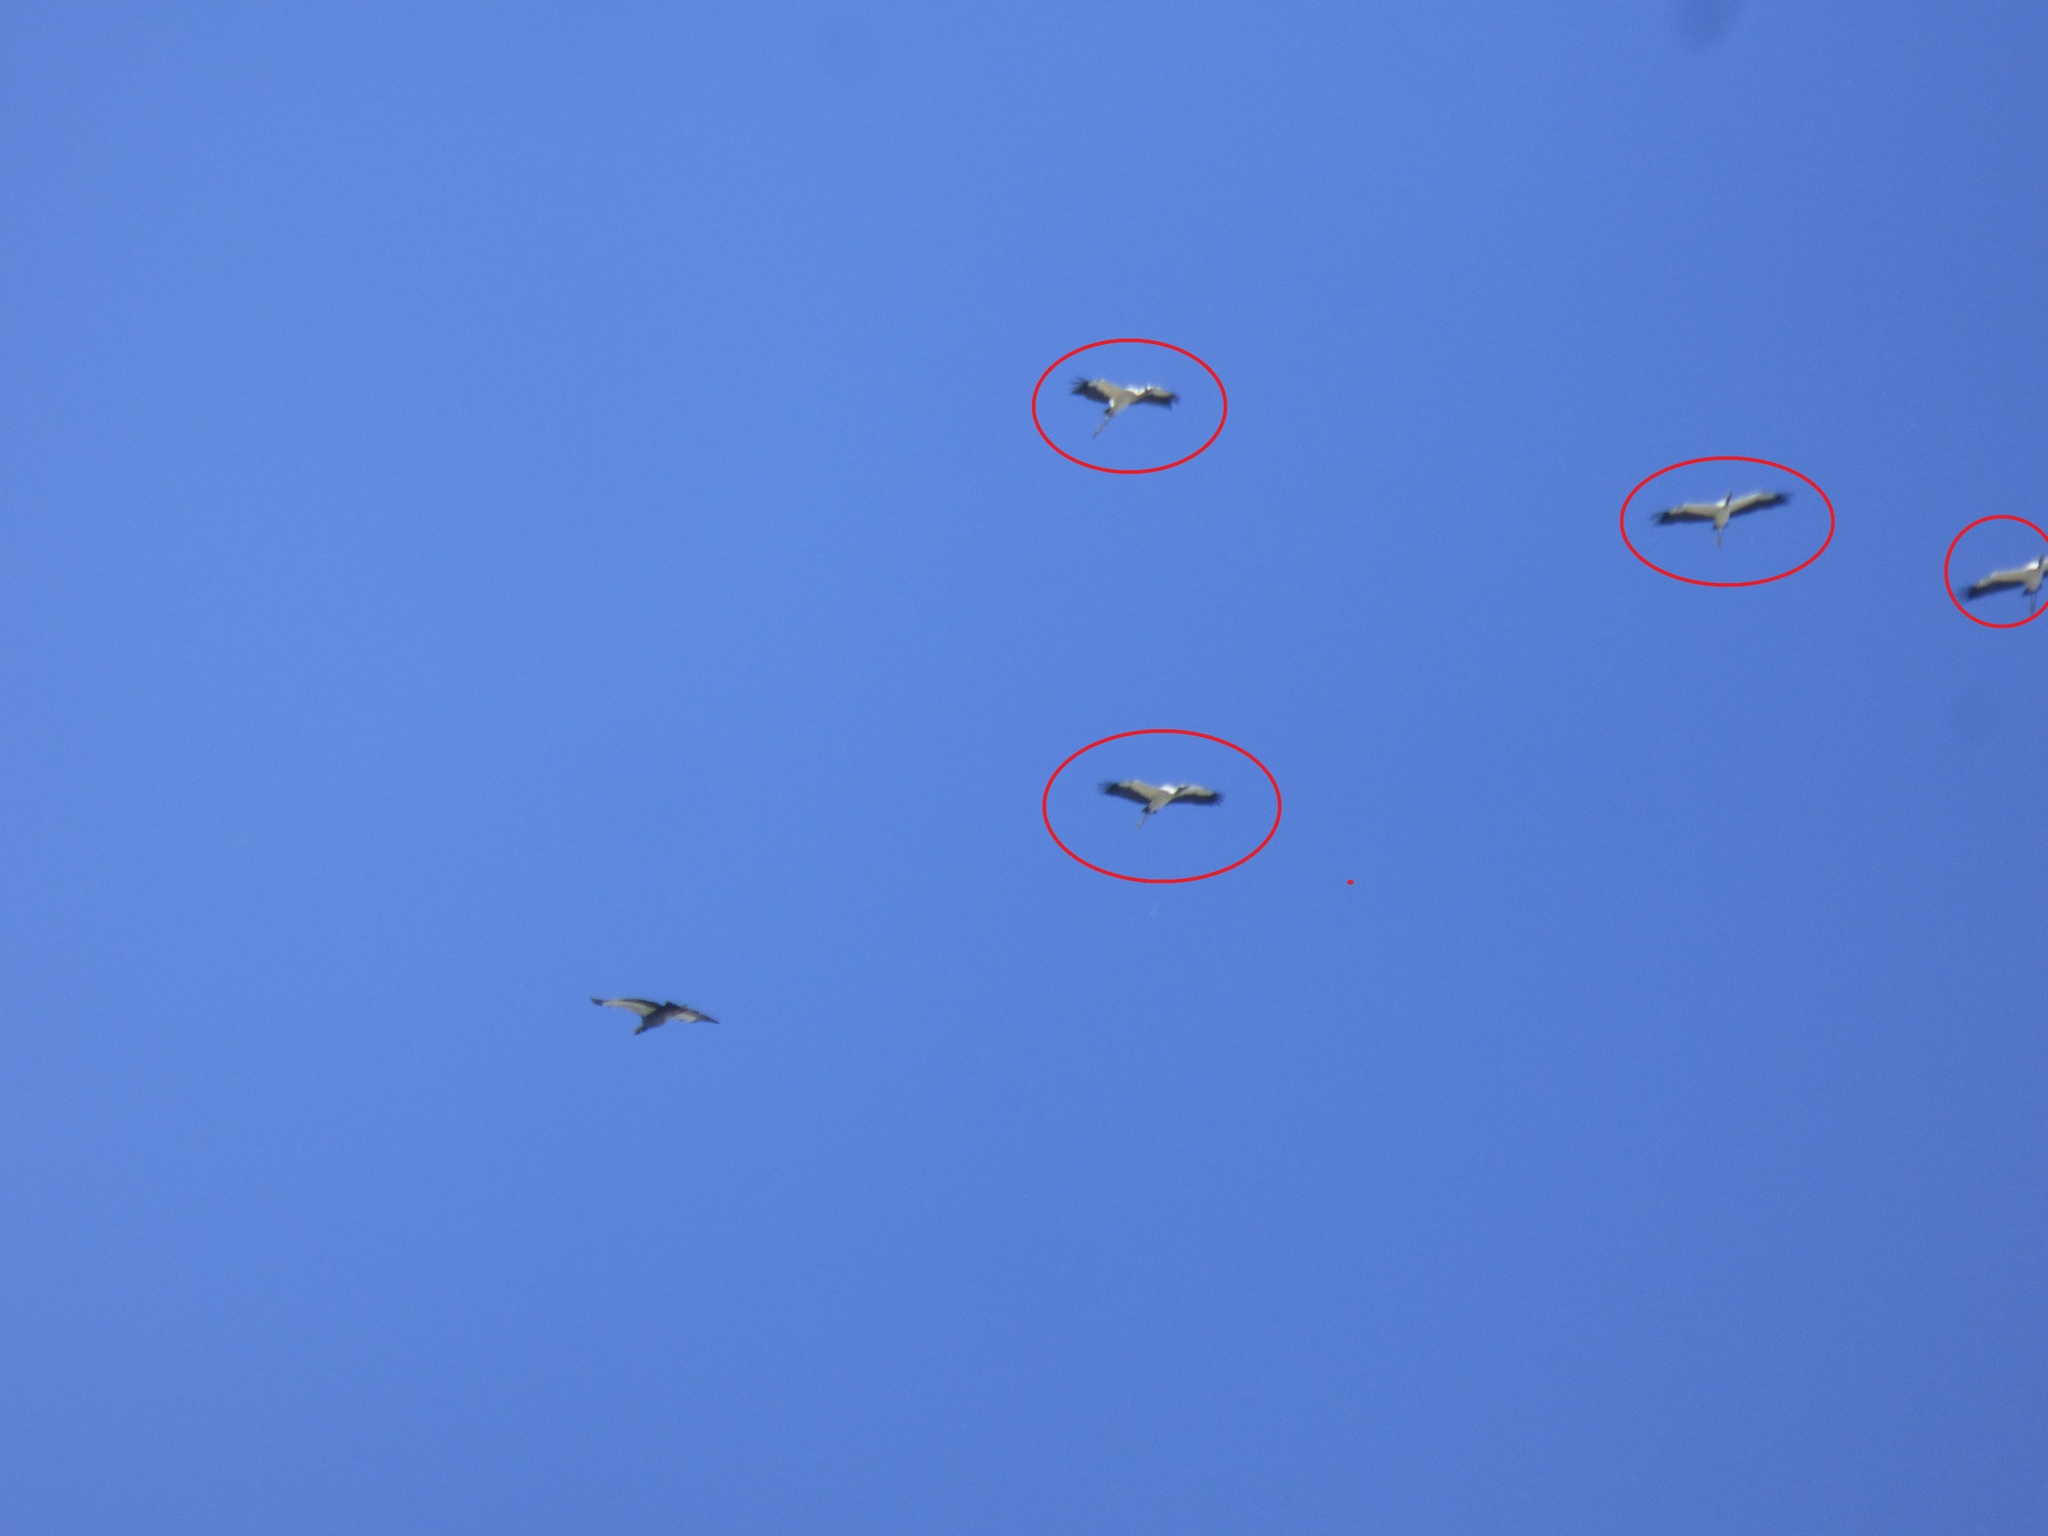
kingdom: Animalia
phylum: Chordata
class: Aves
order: Ciconiiformes
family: Ciconiidae
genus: Mycteria
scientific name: Mycteria americana
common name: Wood stork
